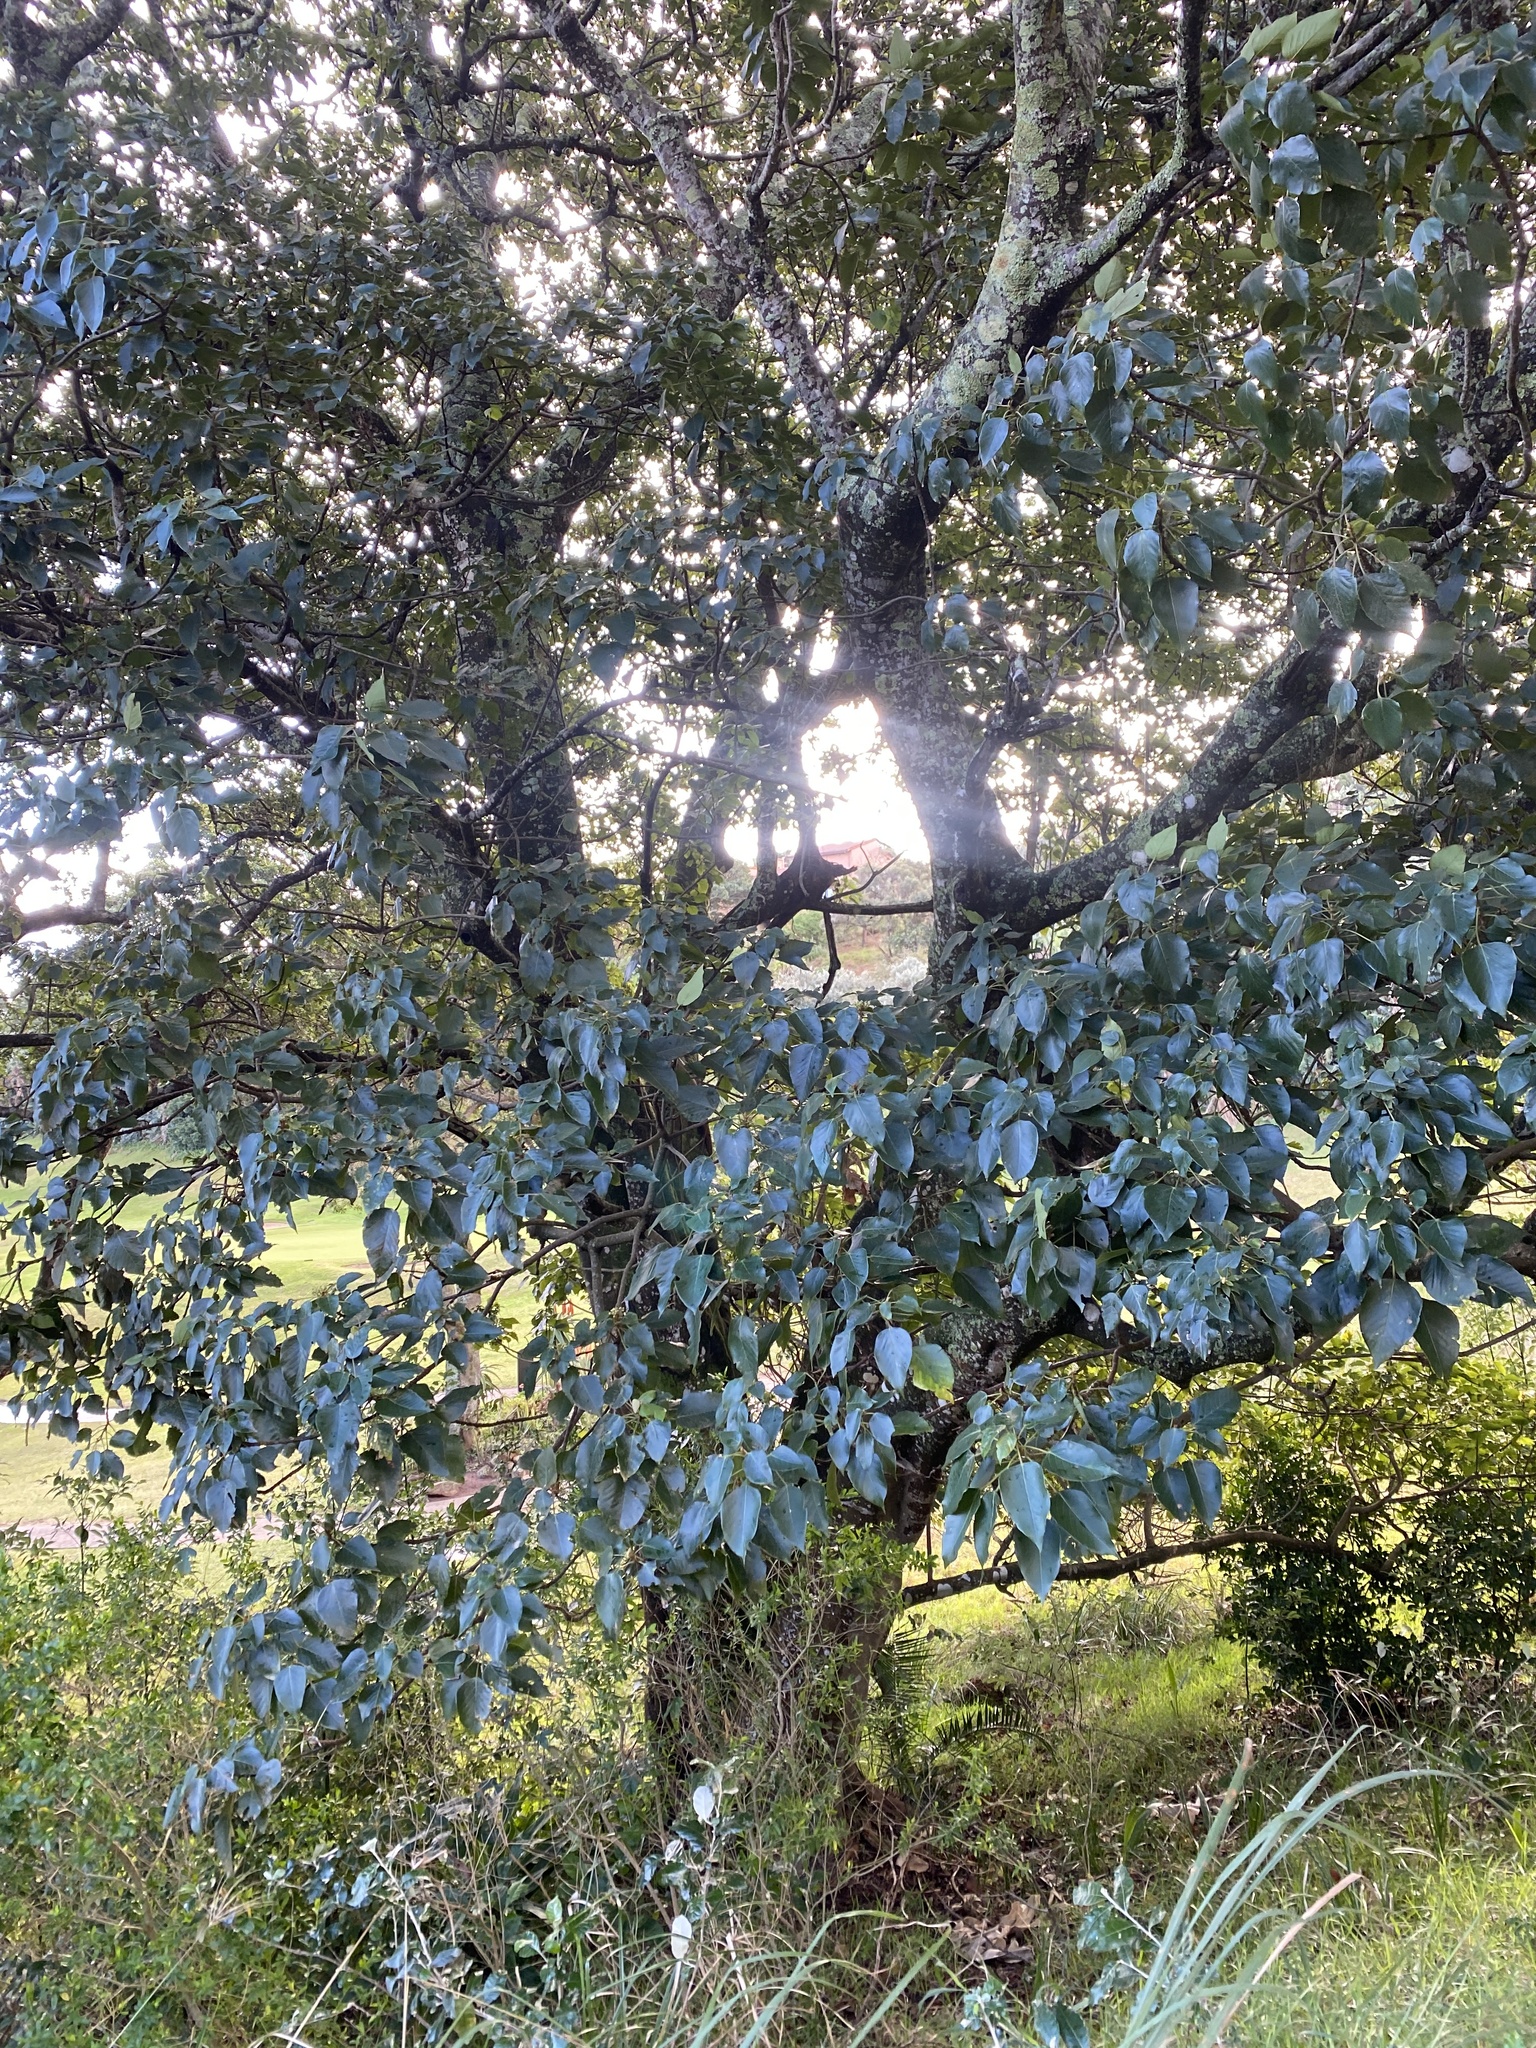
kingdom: Plantae
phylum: Tracheophyta
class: Magnoliopsida
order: Malpighiales
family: Euphorbiaceae
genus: Croton
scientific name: Croton sylvaticus
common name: Forest croton
